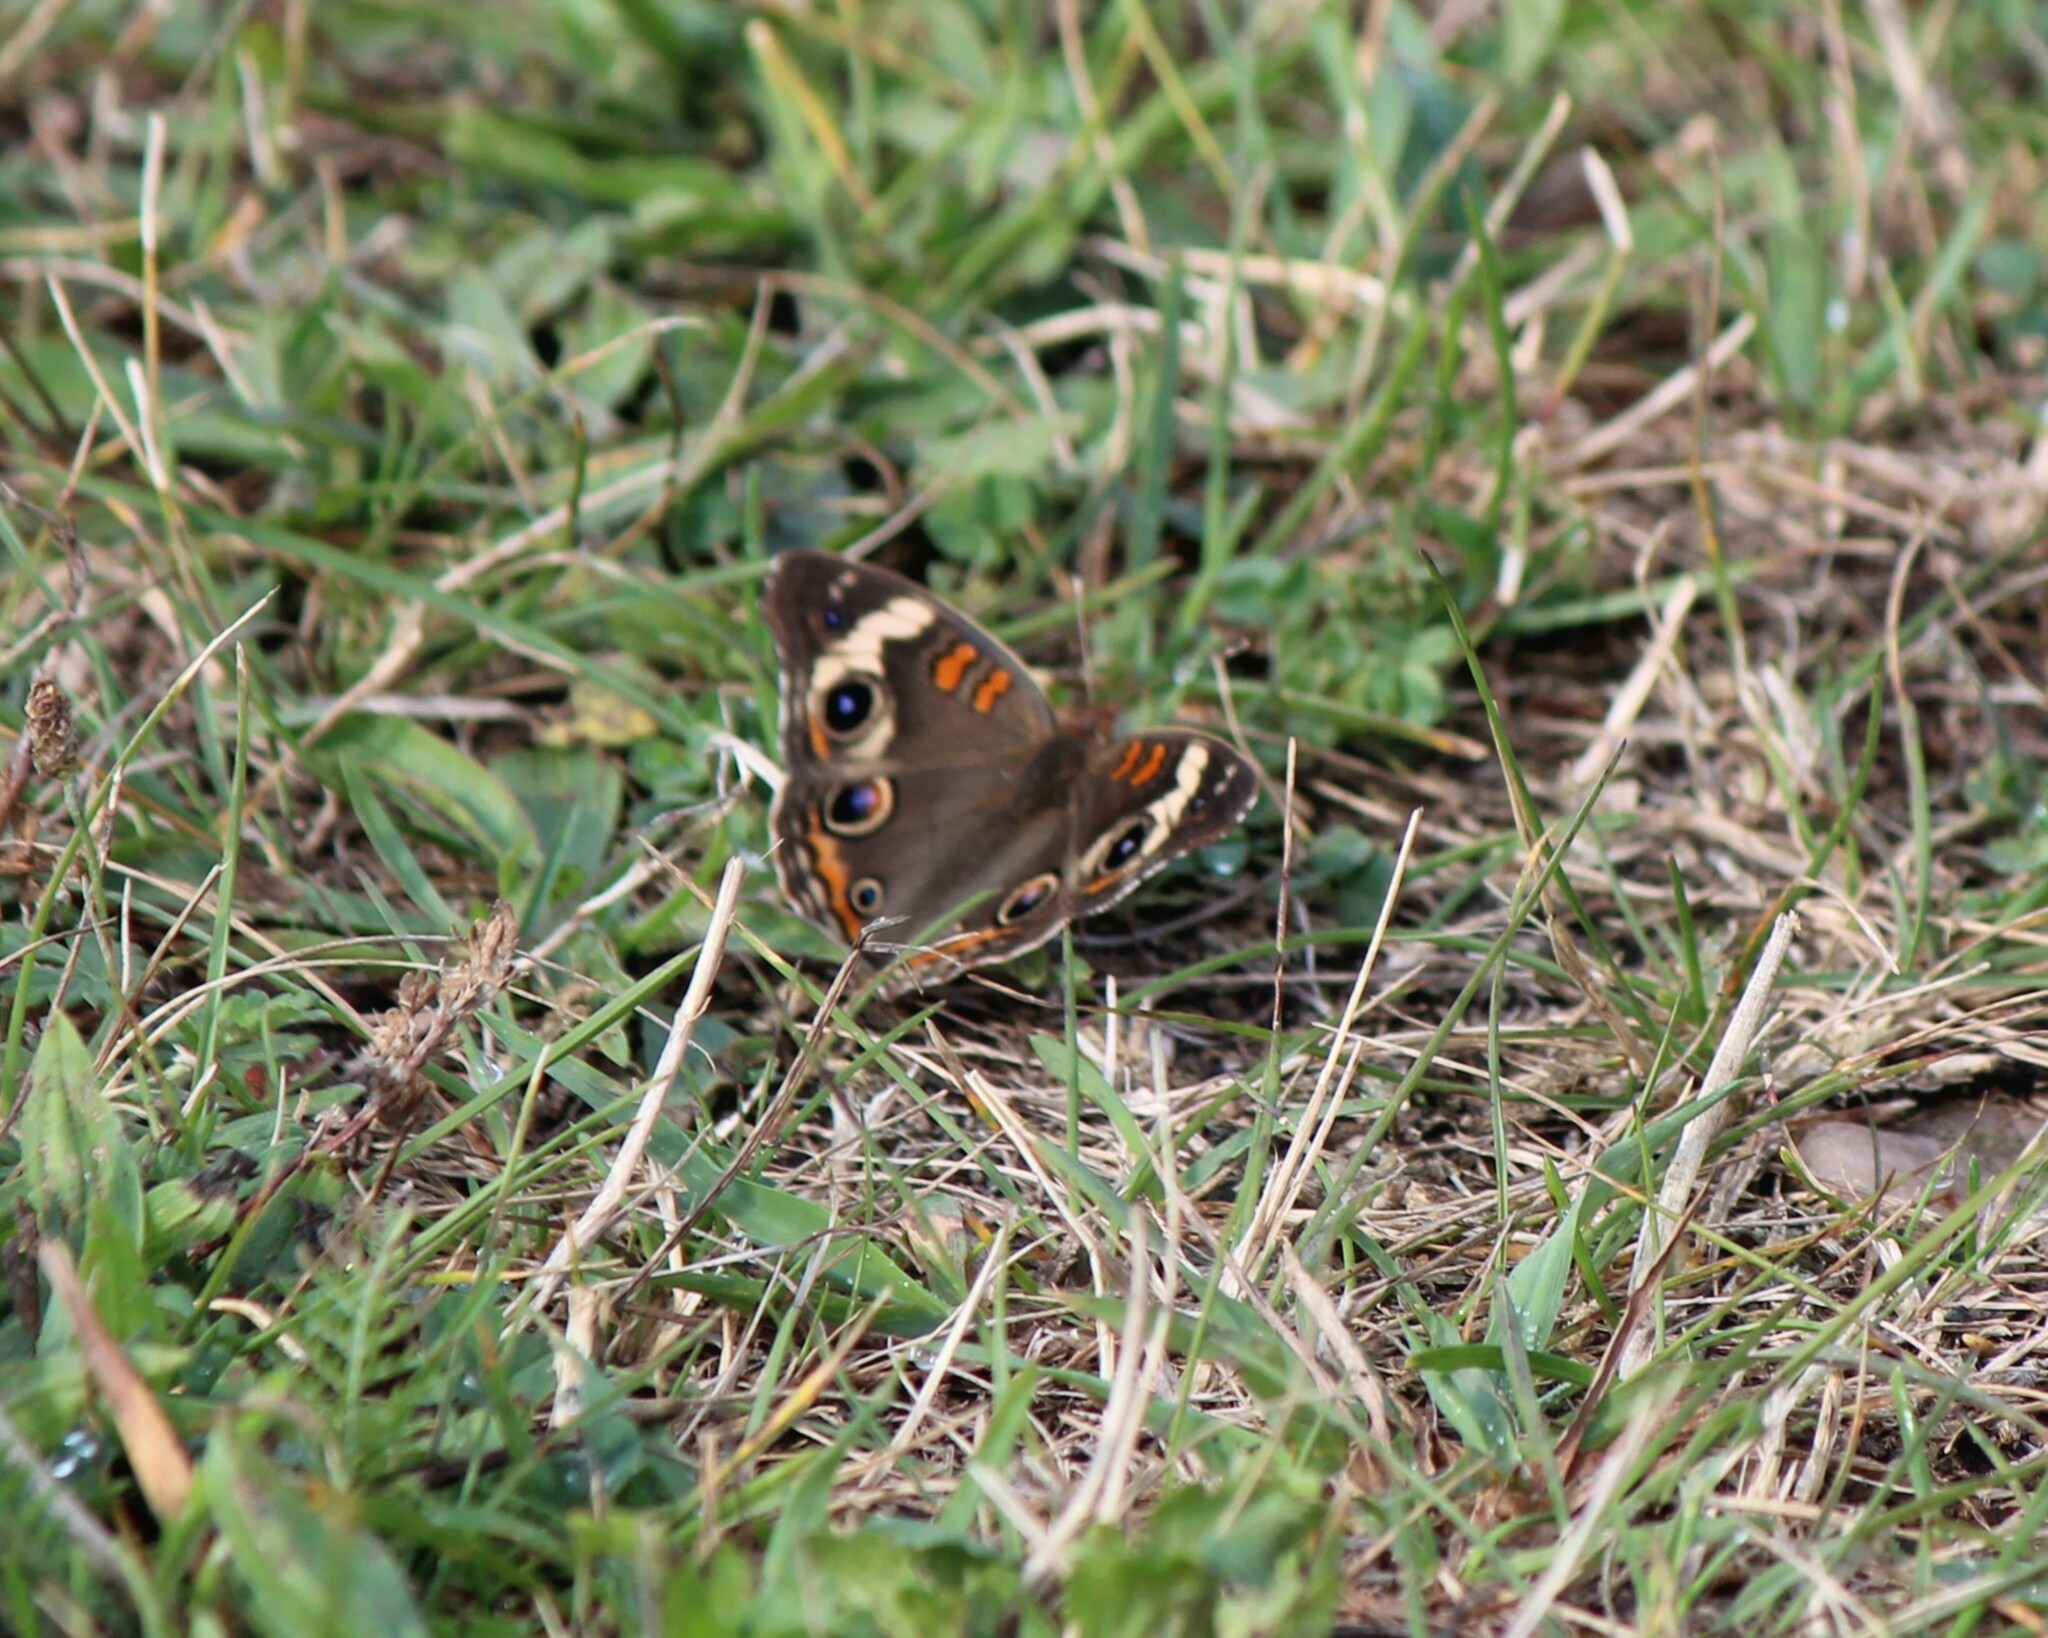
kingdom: Animalia
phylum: Arthropoda
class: Insecta
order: Lepidoptera
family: Nymphalidae
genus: Junonia
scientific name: Junonia coenia
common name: Common buckeye
